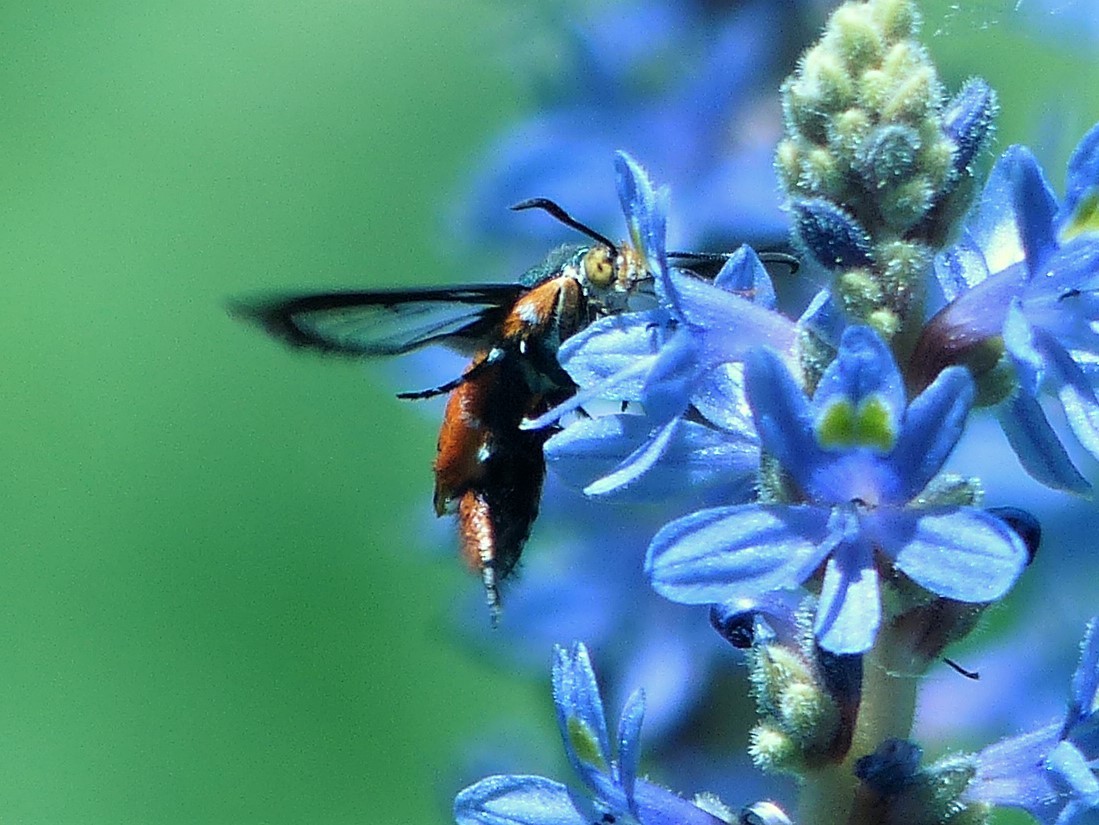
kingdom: Animalia
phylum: Arthropoda
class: Insecta
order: Lepidoptera
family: Sesiidae
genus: Eichlinia
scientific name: Eichlinia cucurbitae
